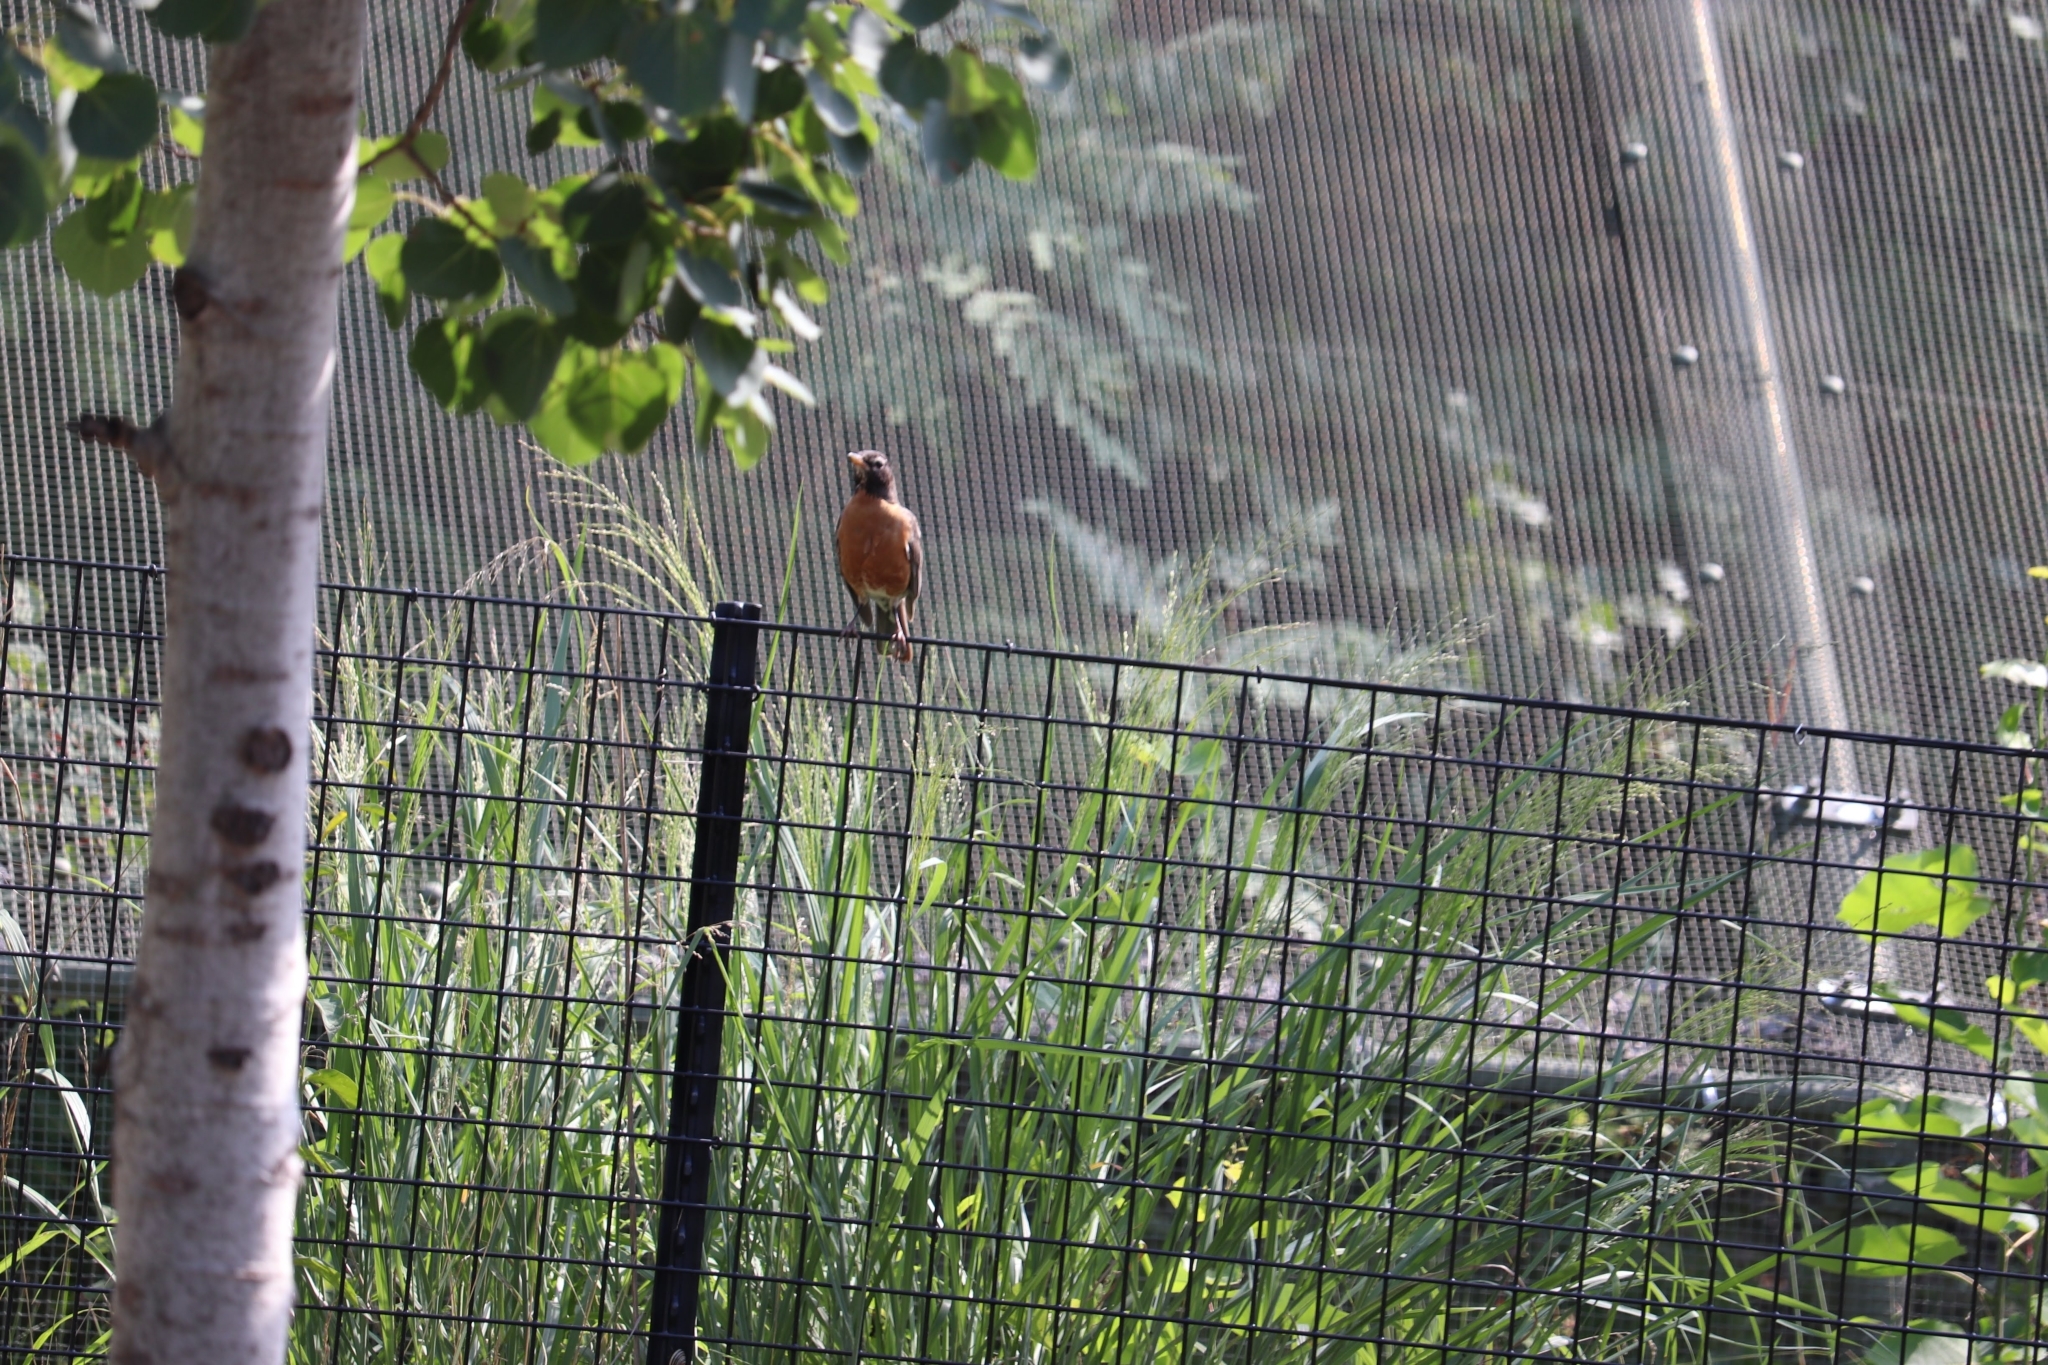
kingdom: Animalia
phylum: Chordata
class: Aves
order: Passeriformes
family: Turdidae
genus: Turdus
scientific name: Turdus migratorius
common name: American robin
